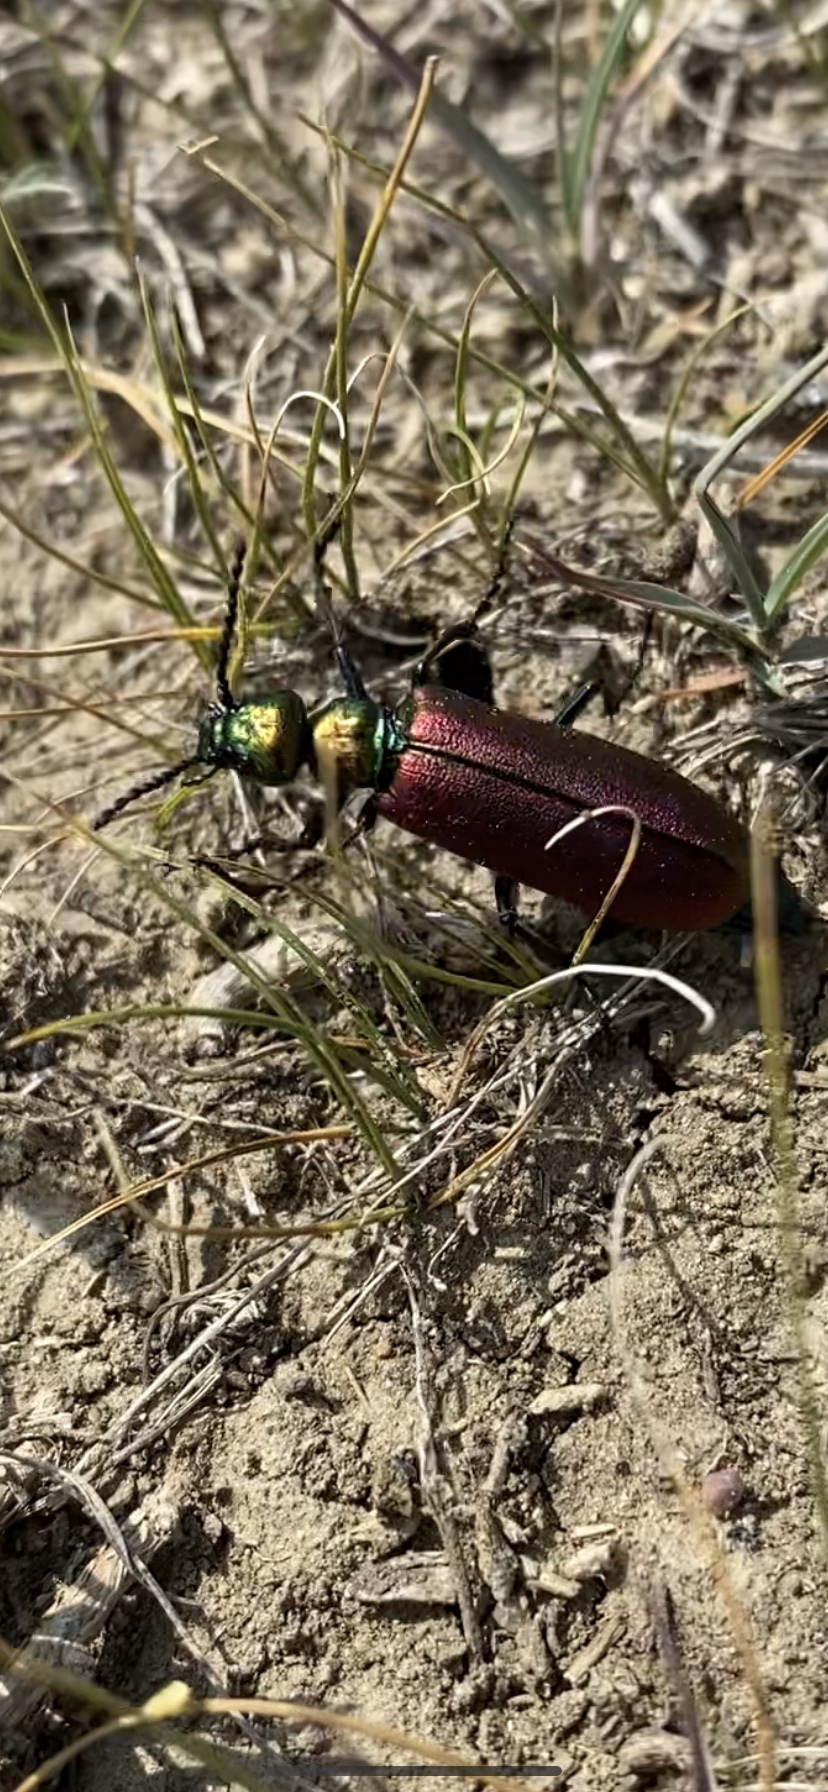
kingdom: Animalia
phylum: Arthropoda
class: Insecta
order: Coleoptera
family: Meloidae
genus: Lytta
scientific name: Lytta nuttallii
